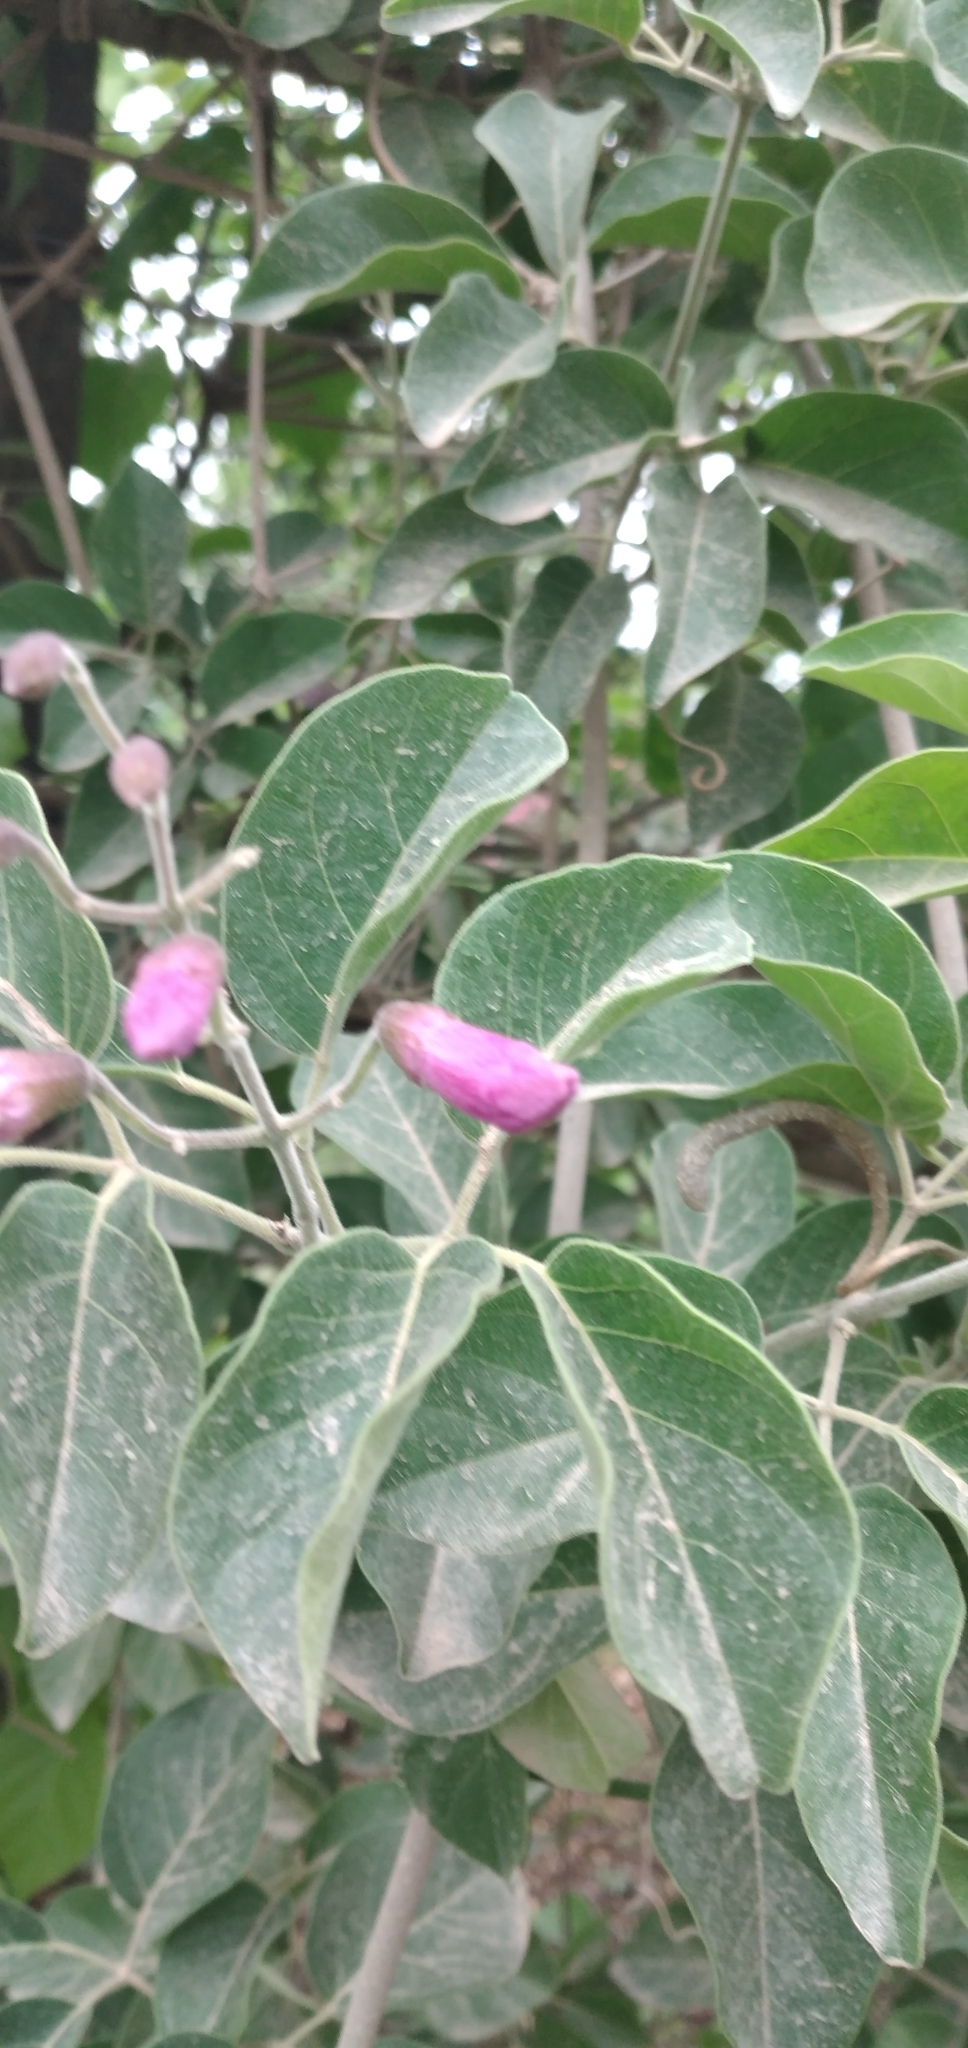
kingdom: Plantae
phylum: Tracheophyta
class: Magnoliopsida
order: Lamiales
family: Bignoniaceae
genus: Tanaecium
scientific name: Tanaecium dichotomum
